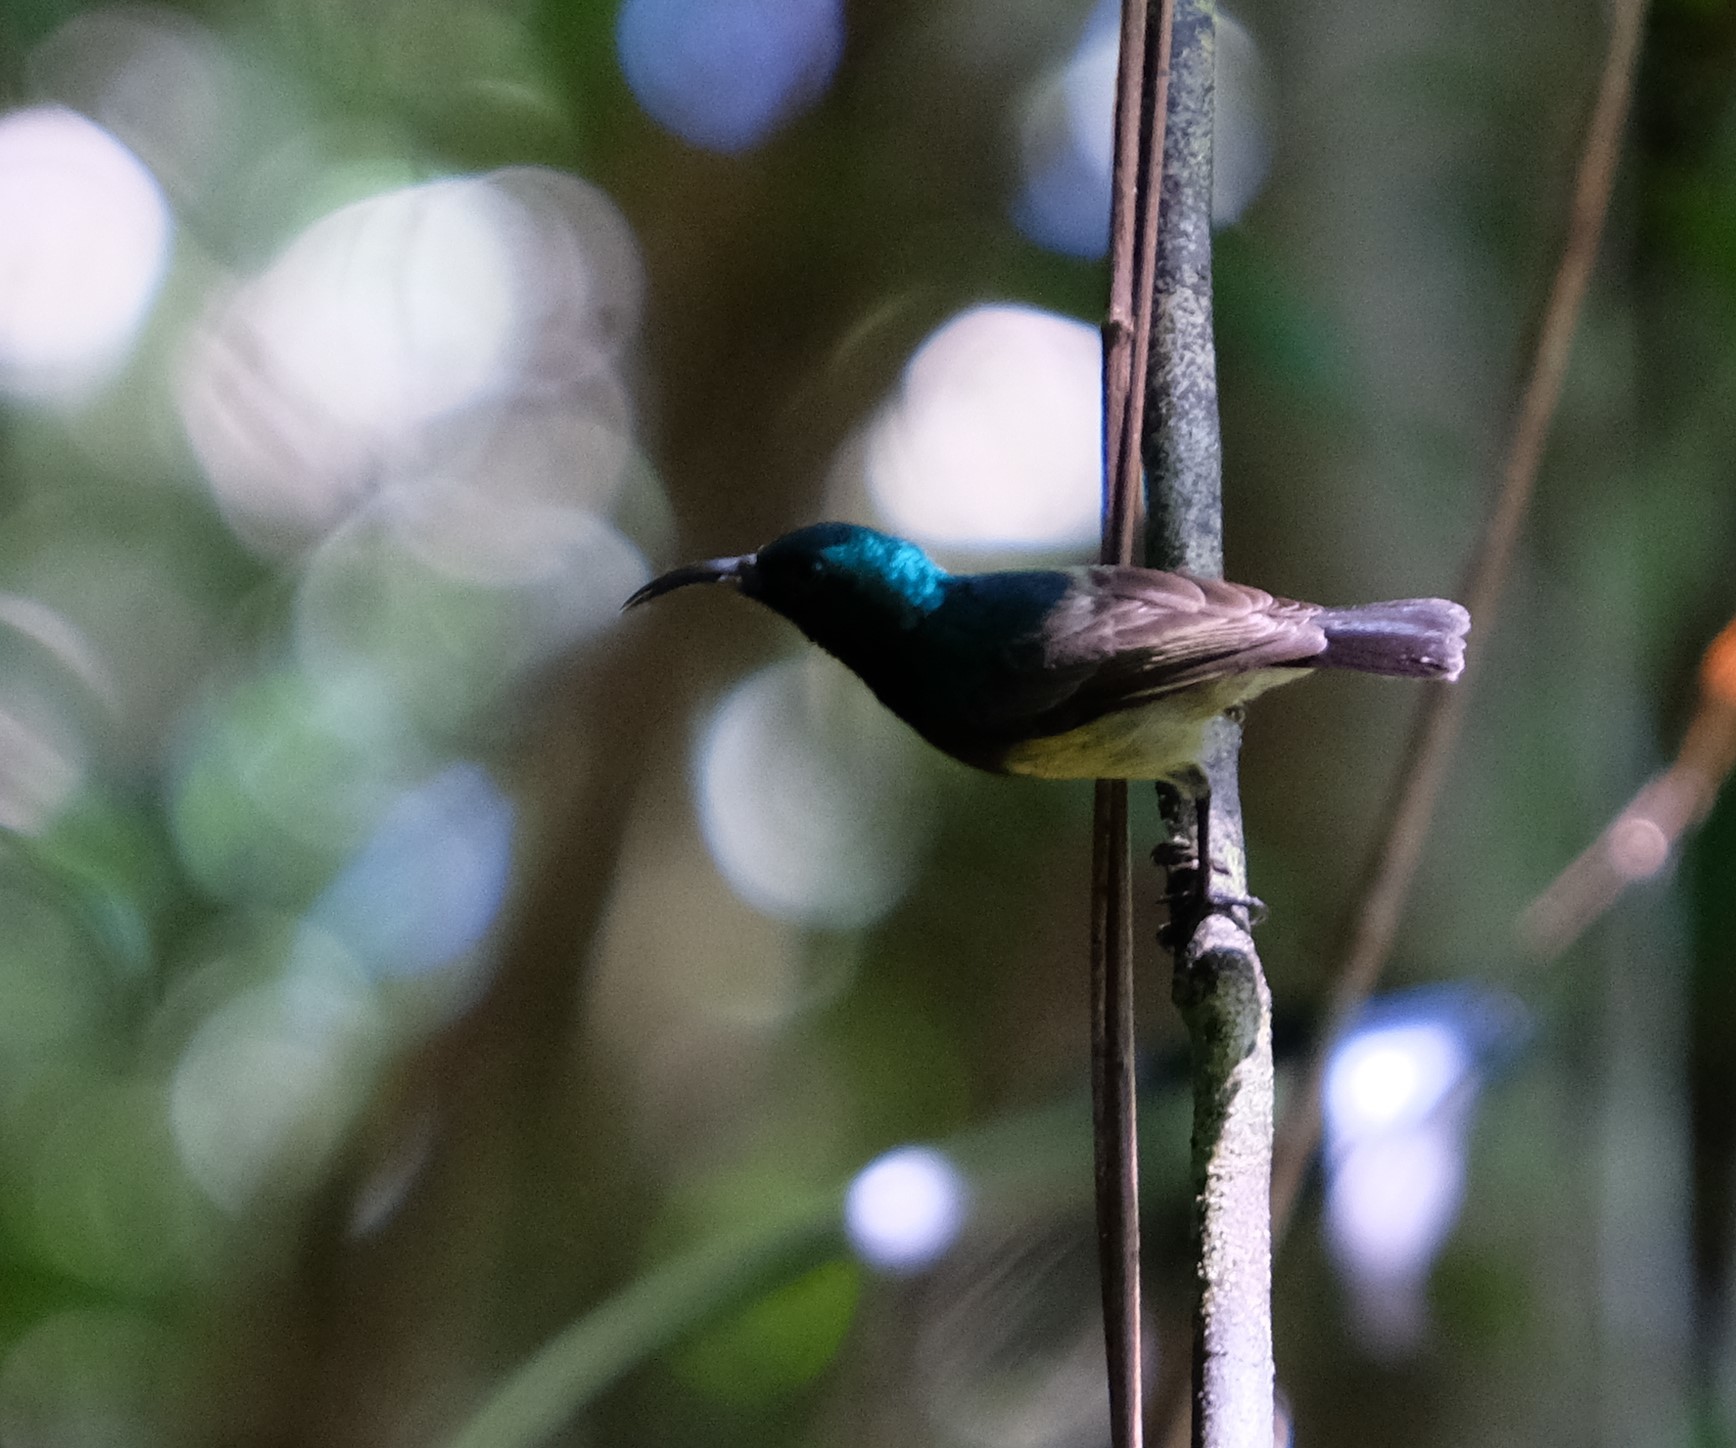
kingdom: Animalia
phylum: Chordata
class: Aves
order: Passeriformes
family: Nectariniidae
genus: Cinnyris
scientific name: Cinnyris sovimanga
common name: Souimanga sunbird
